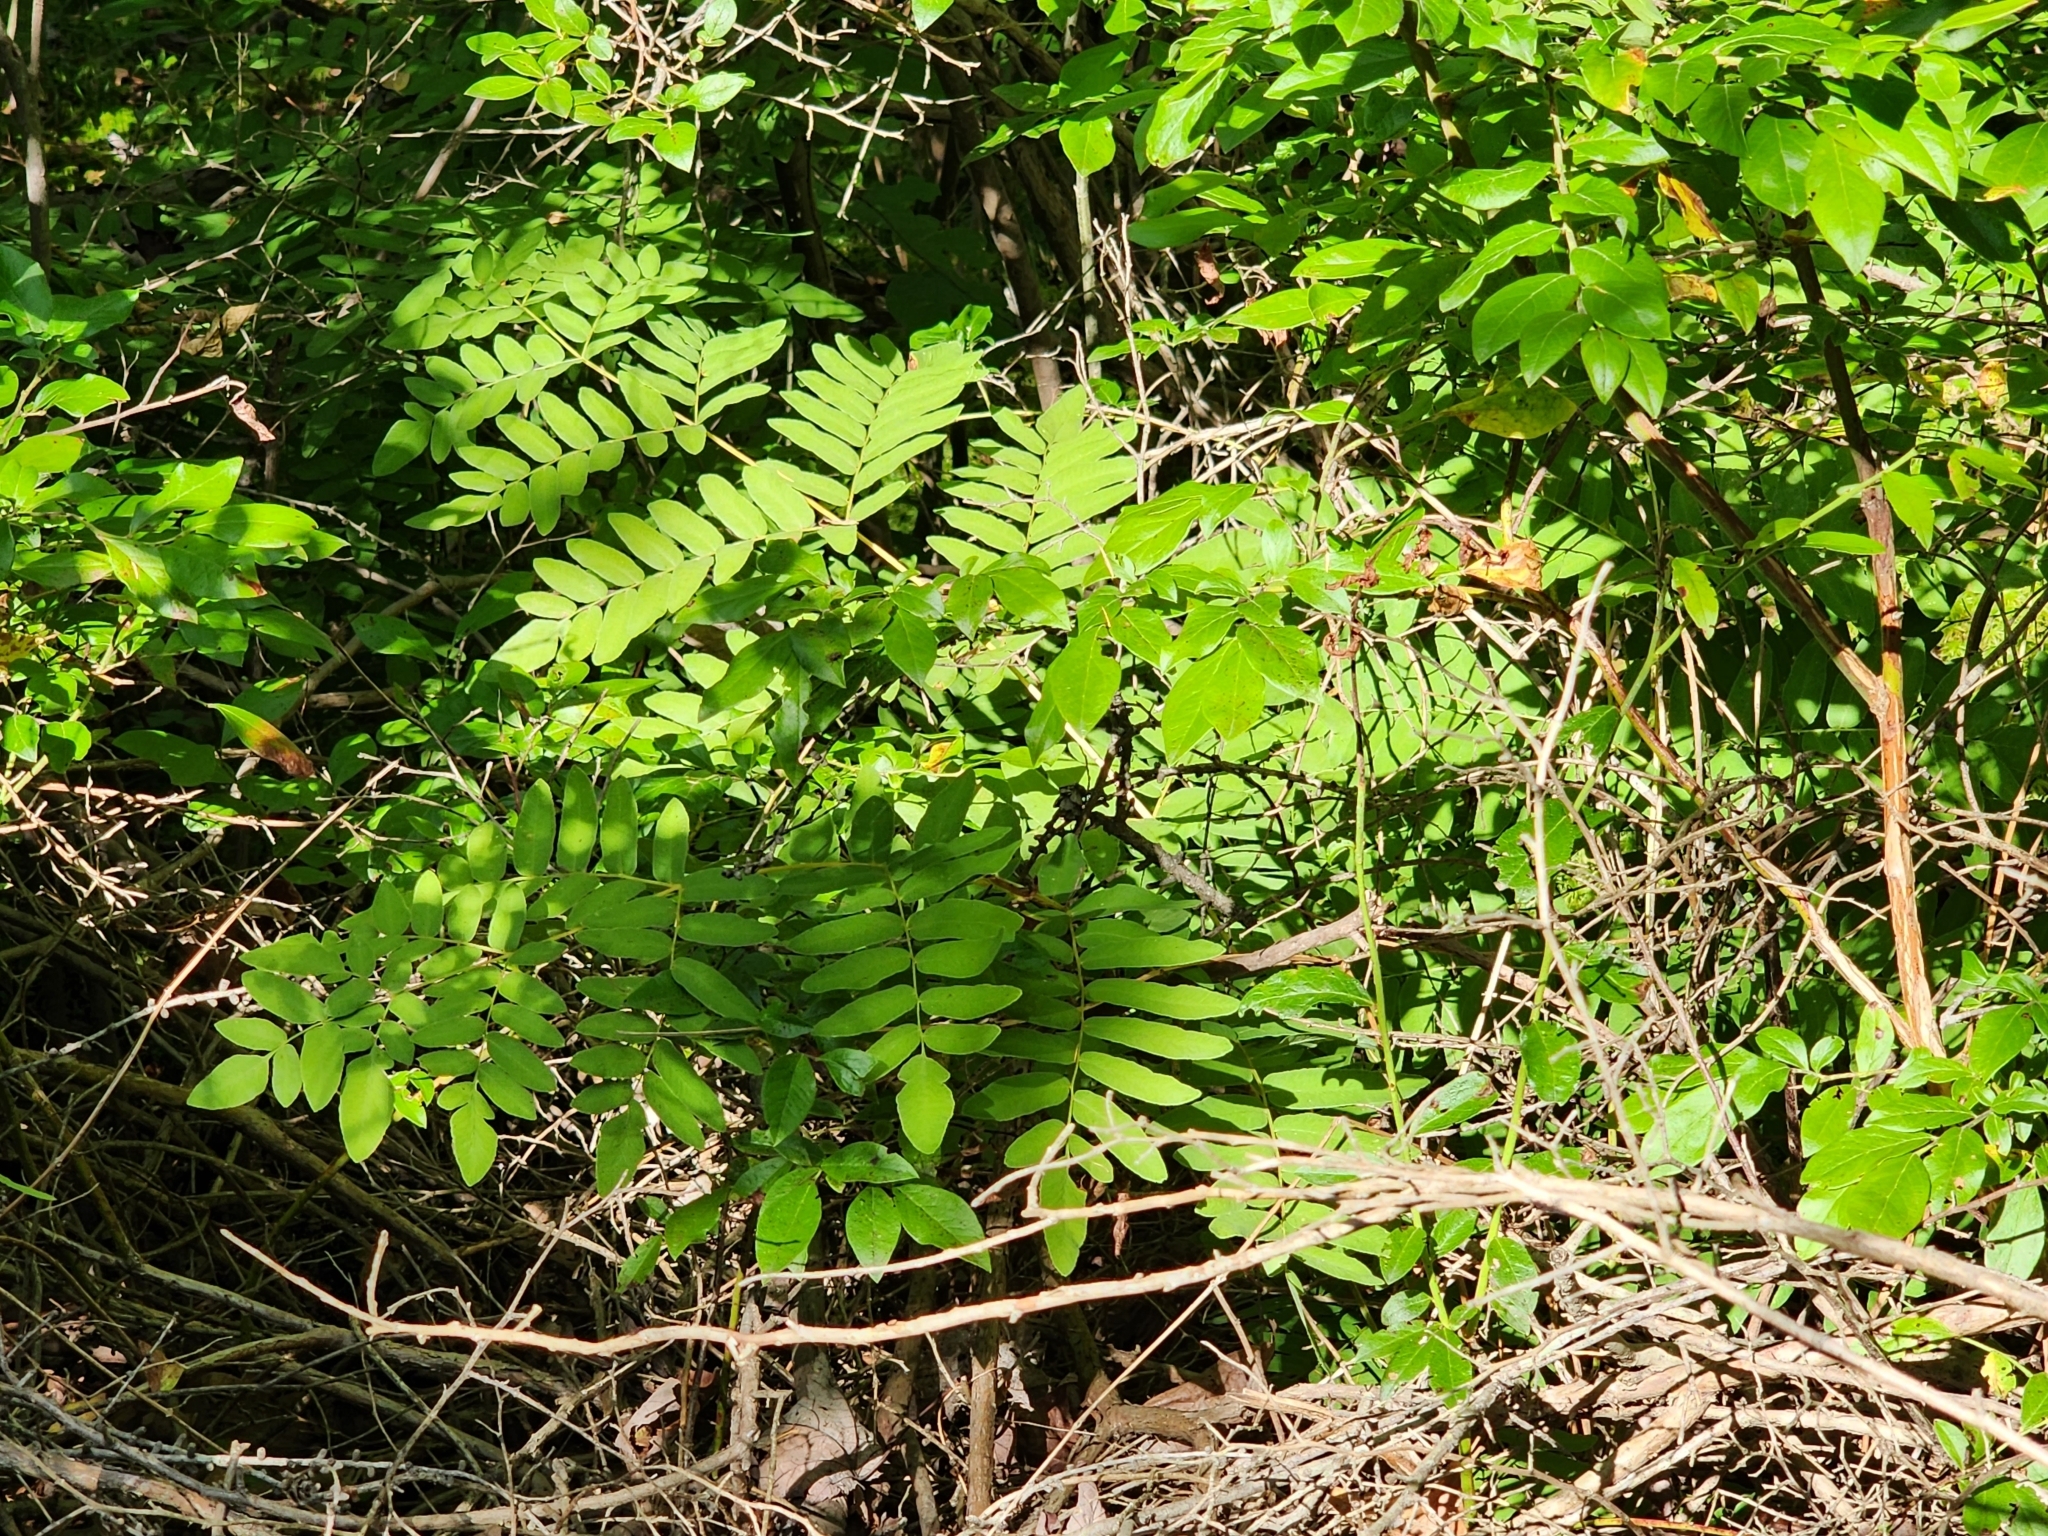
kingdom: Plantae
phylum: Tracheophyta
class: Polypodiopsida
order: Osmundales
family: Osmundaceae
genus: Osmunda
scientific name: Osmunda spectabilis
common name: American royal fern
